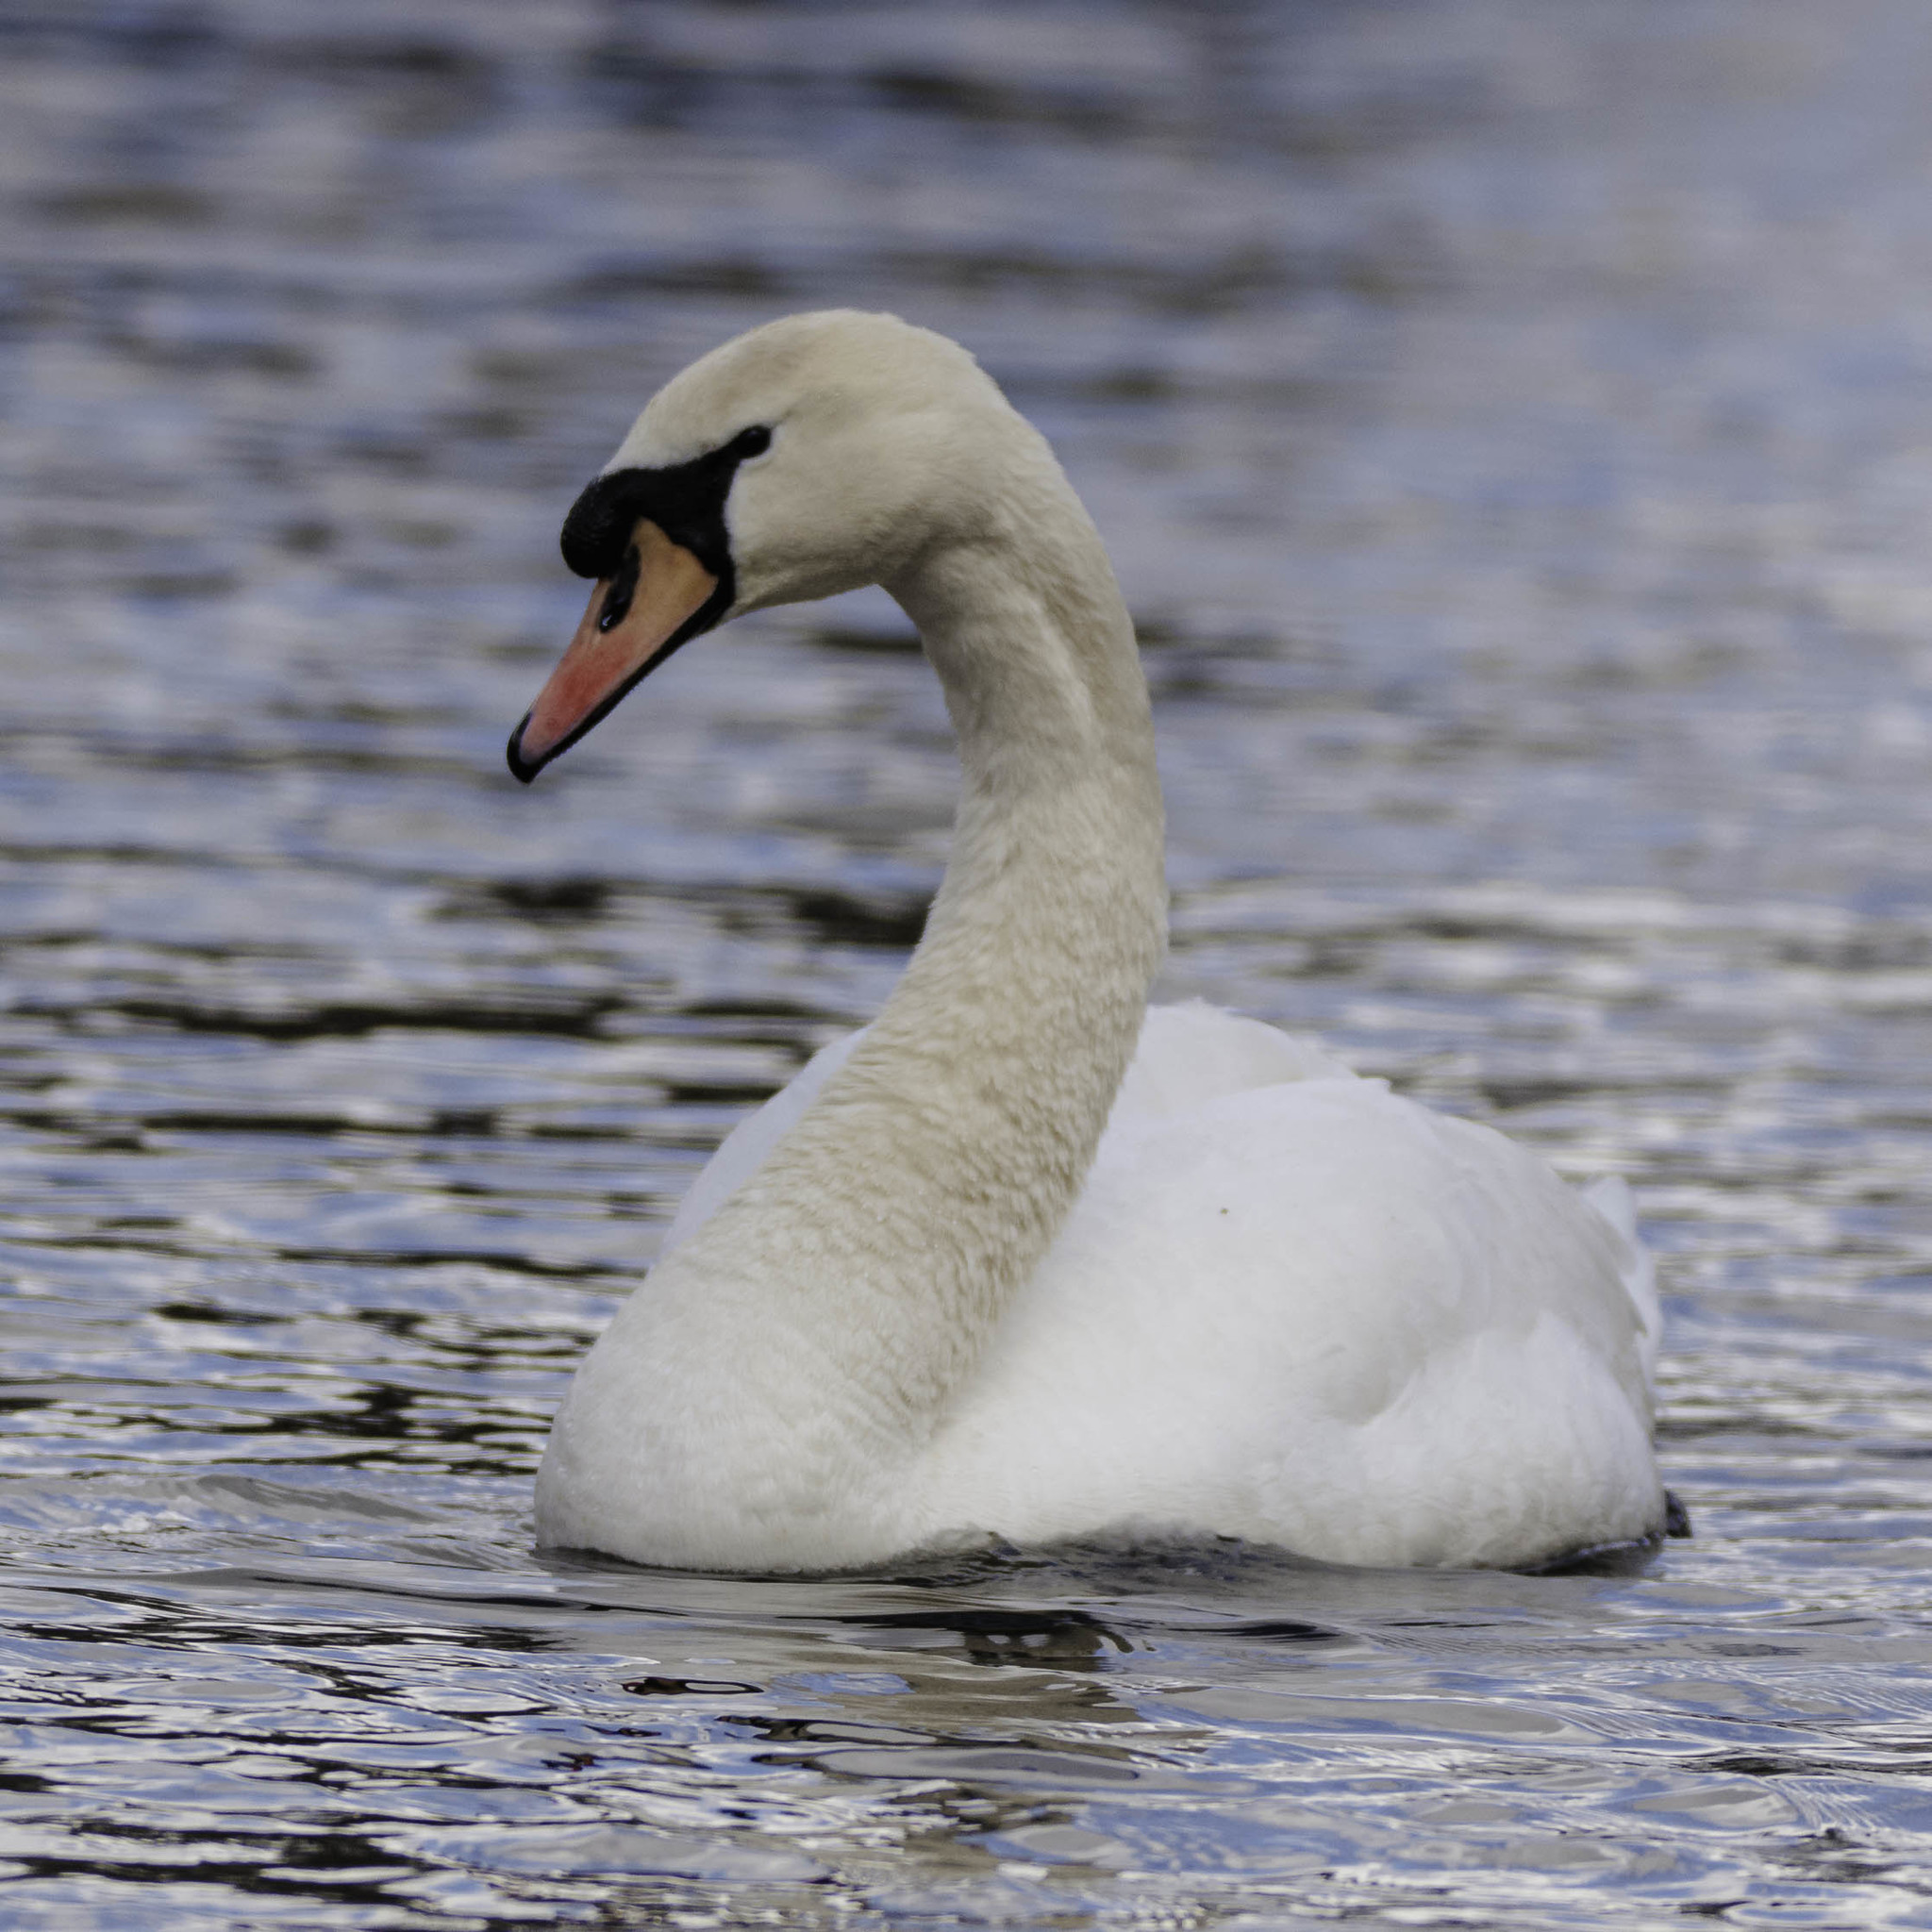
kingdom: Animalia
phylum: Chordata
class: Aves
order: Anseriformes
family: Anatidae
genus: Cygnus
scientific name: Cygnus olor
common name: Mute swan
